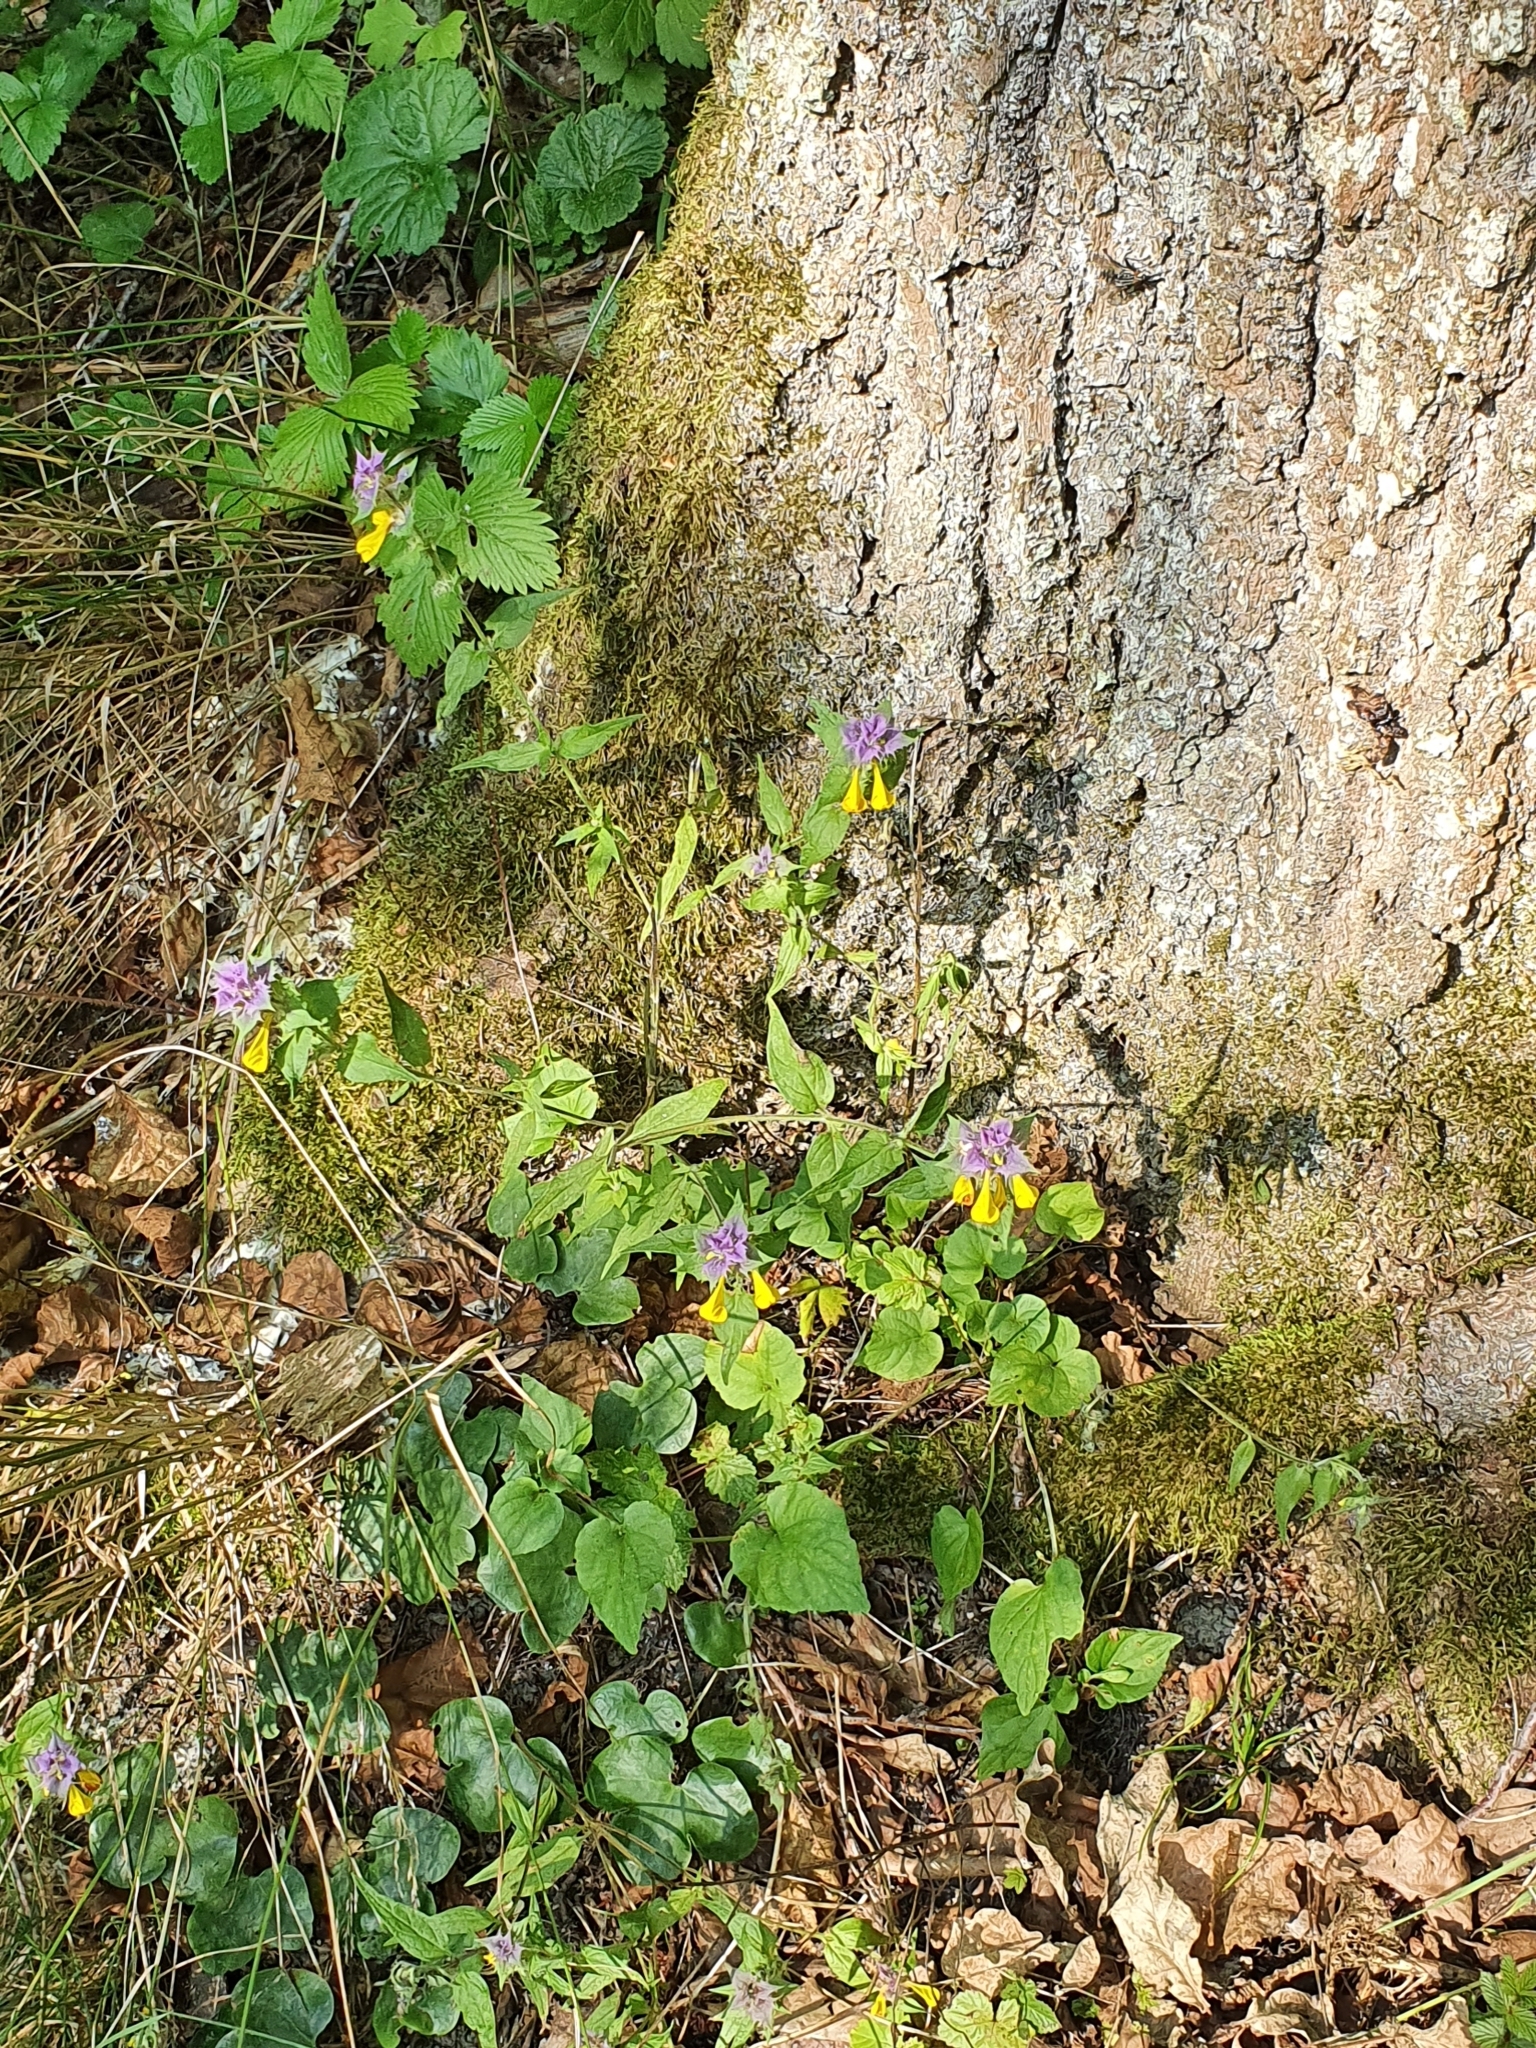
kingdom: Plantae
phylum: Tracheophyta
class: Magnoliopsida
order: Lamiales
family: Orobanchaceae
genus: Melampyrum
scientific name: Melampyrum nemorosum
